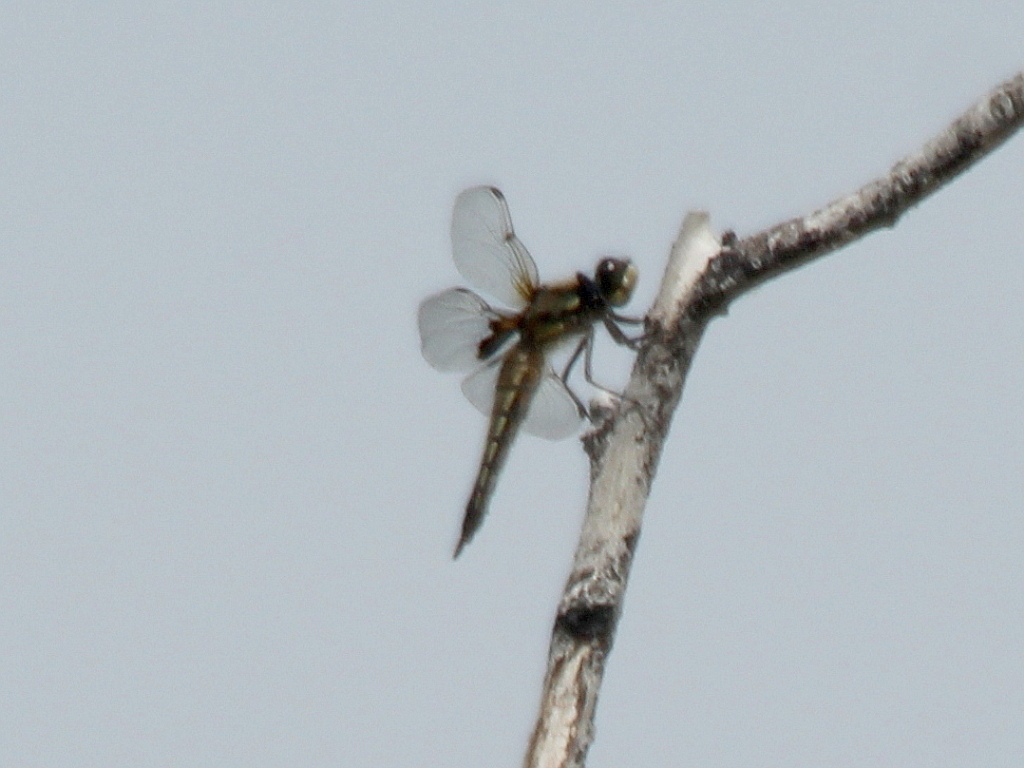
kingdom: Animalia
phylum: Arthropoda
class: Insecta
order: Odonata
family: Libellulidae
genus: Libellula
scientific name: Libellula quadrimaculata
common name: Four-spotted chaser
